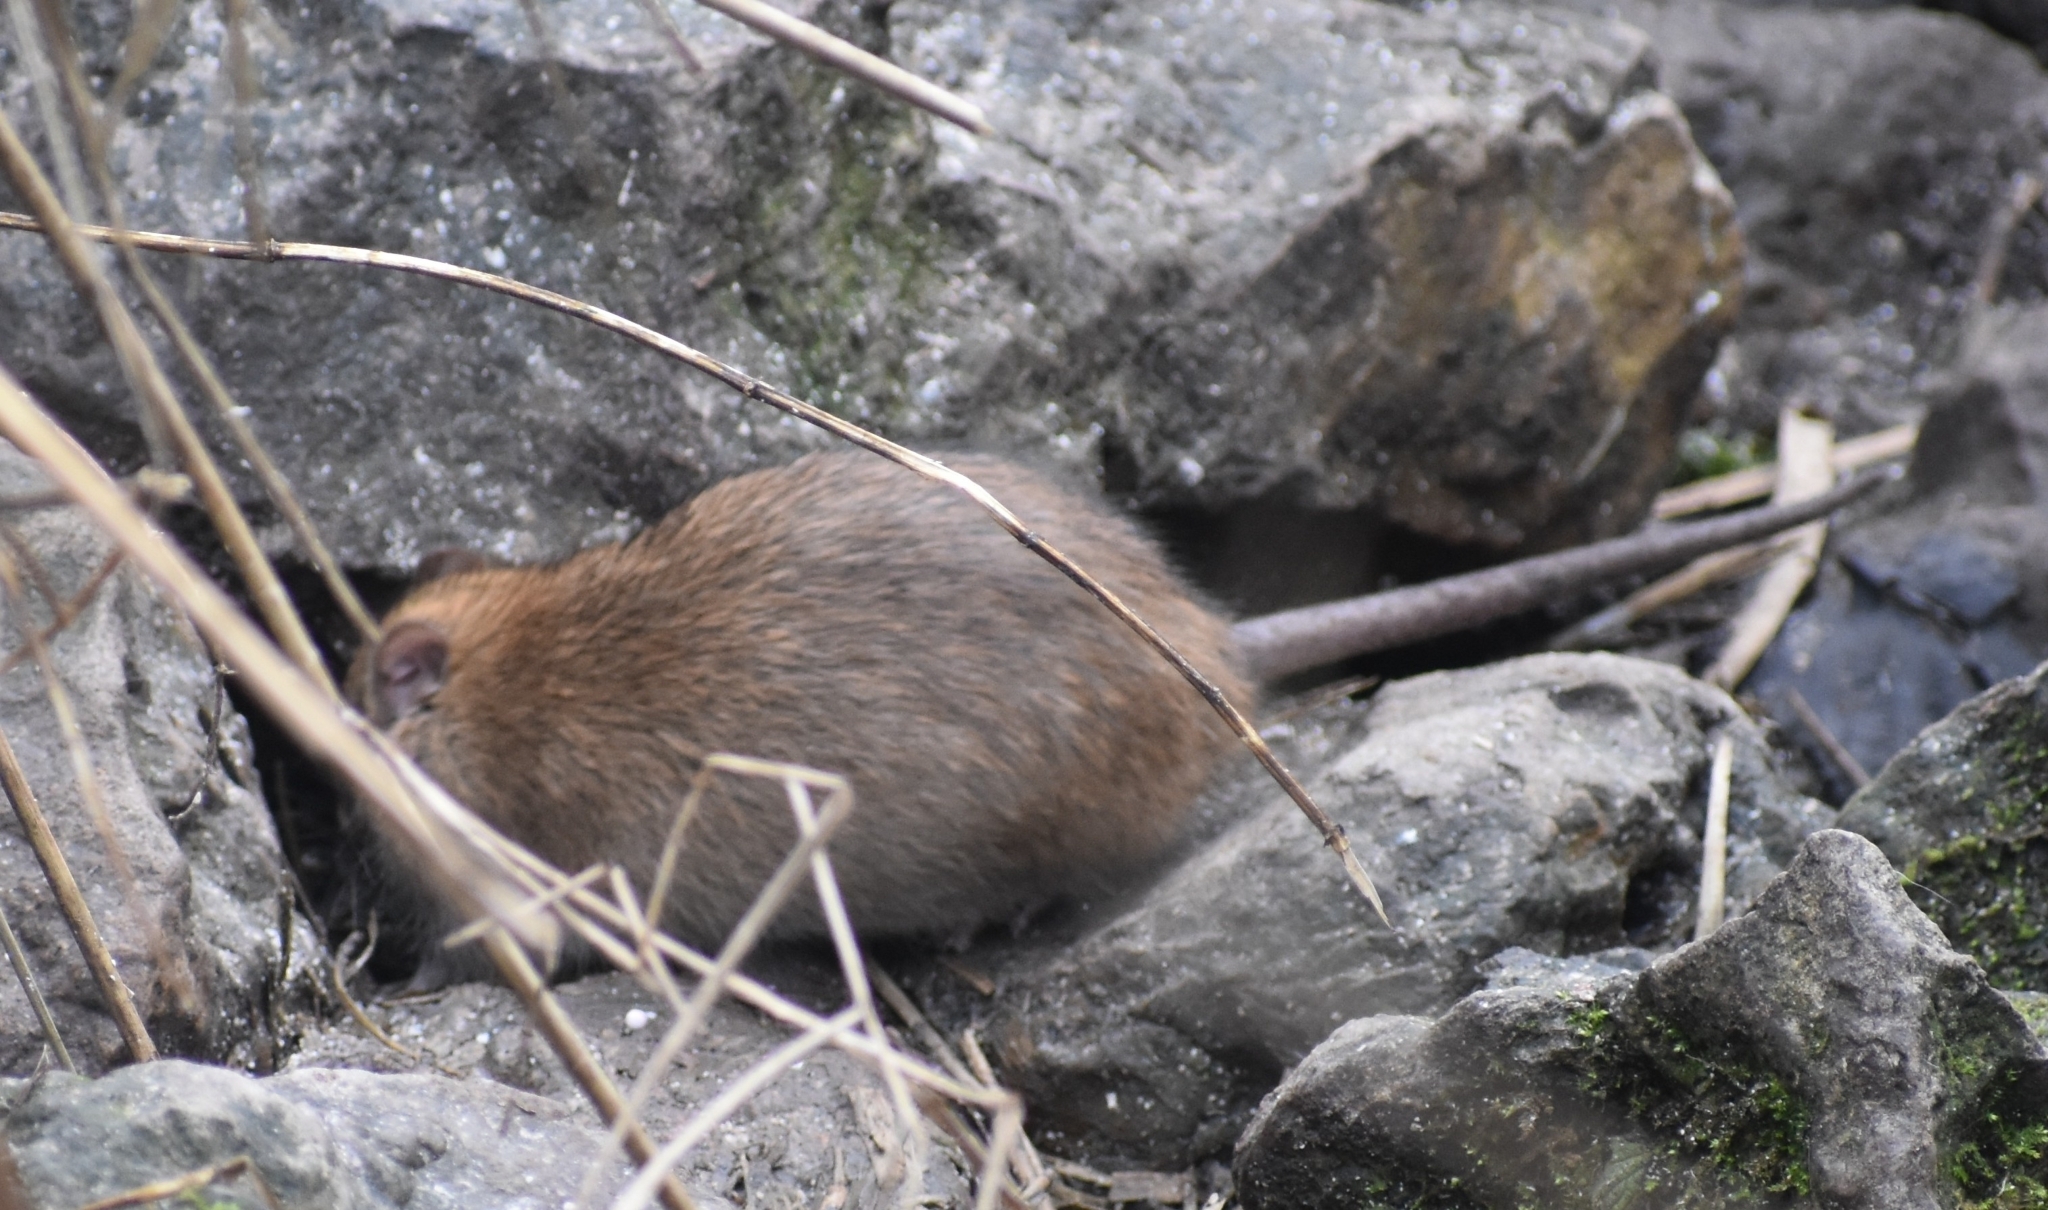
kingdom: Animalia
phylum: Chordata
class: Mammalia
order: Rodentia
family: Muridae
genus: Rattus
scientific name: Rattus norvegicus
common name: Brown rat
